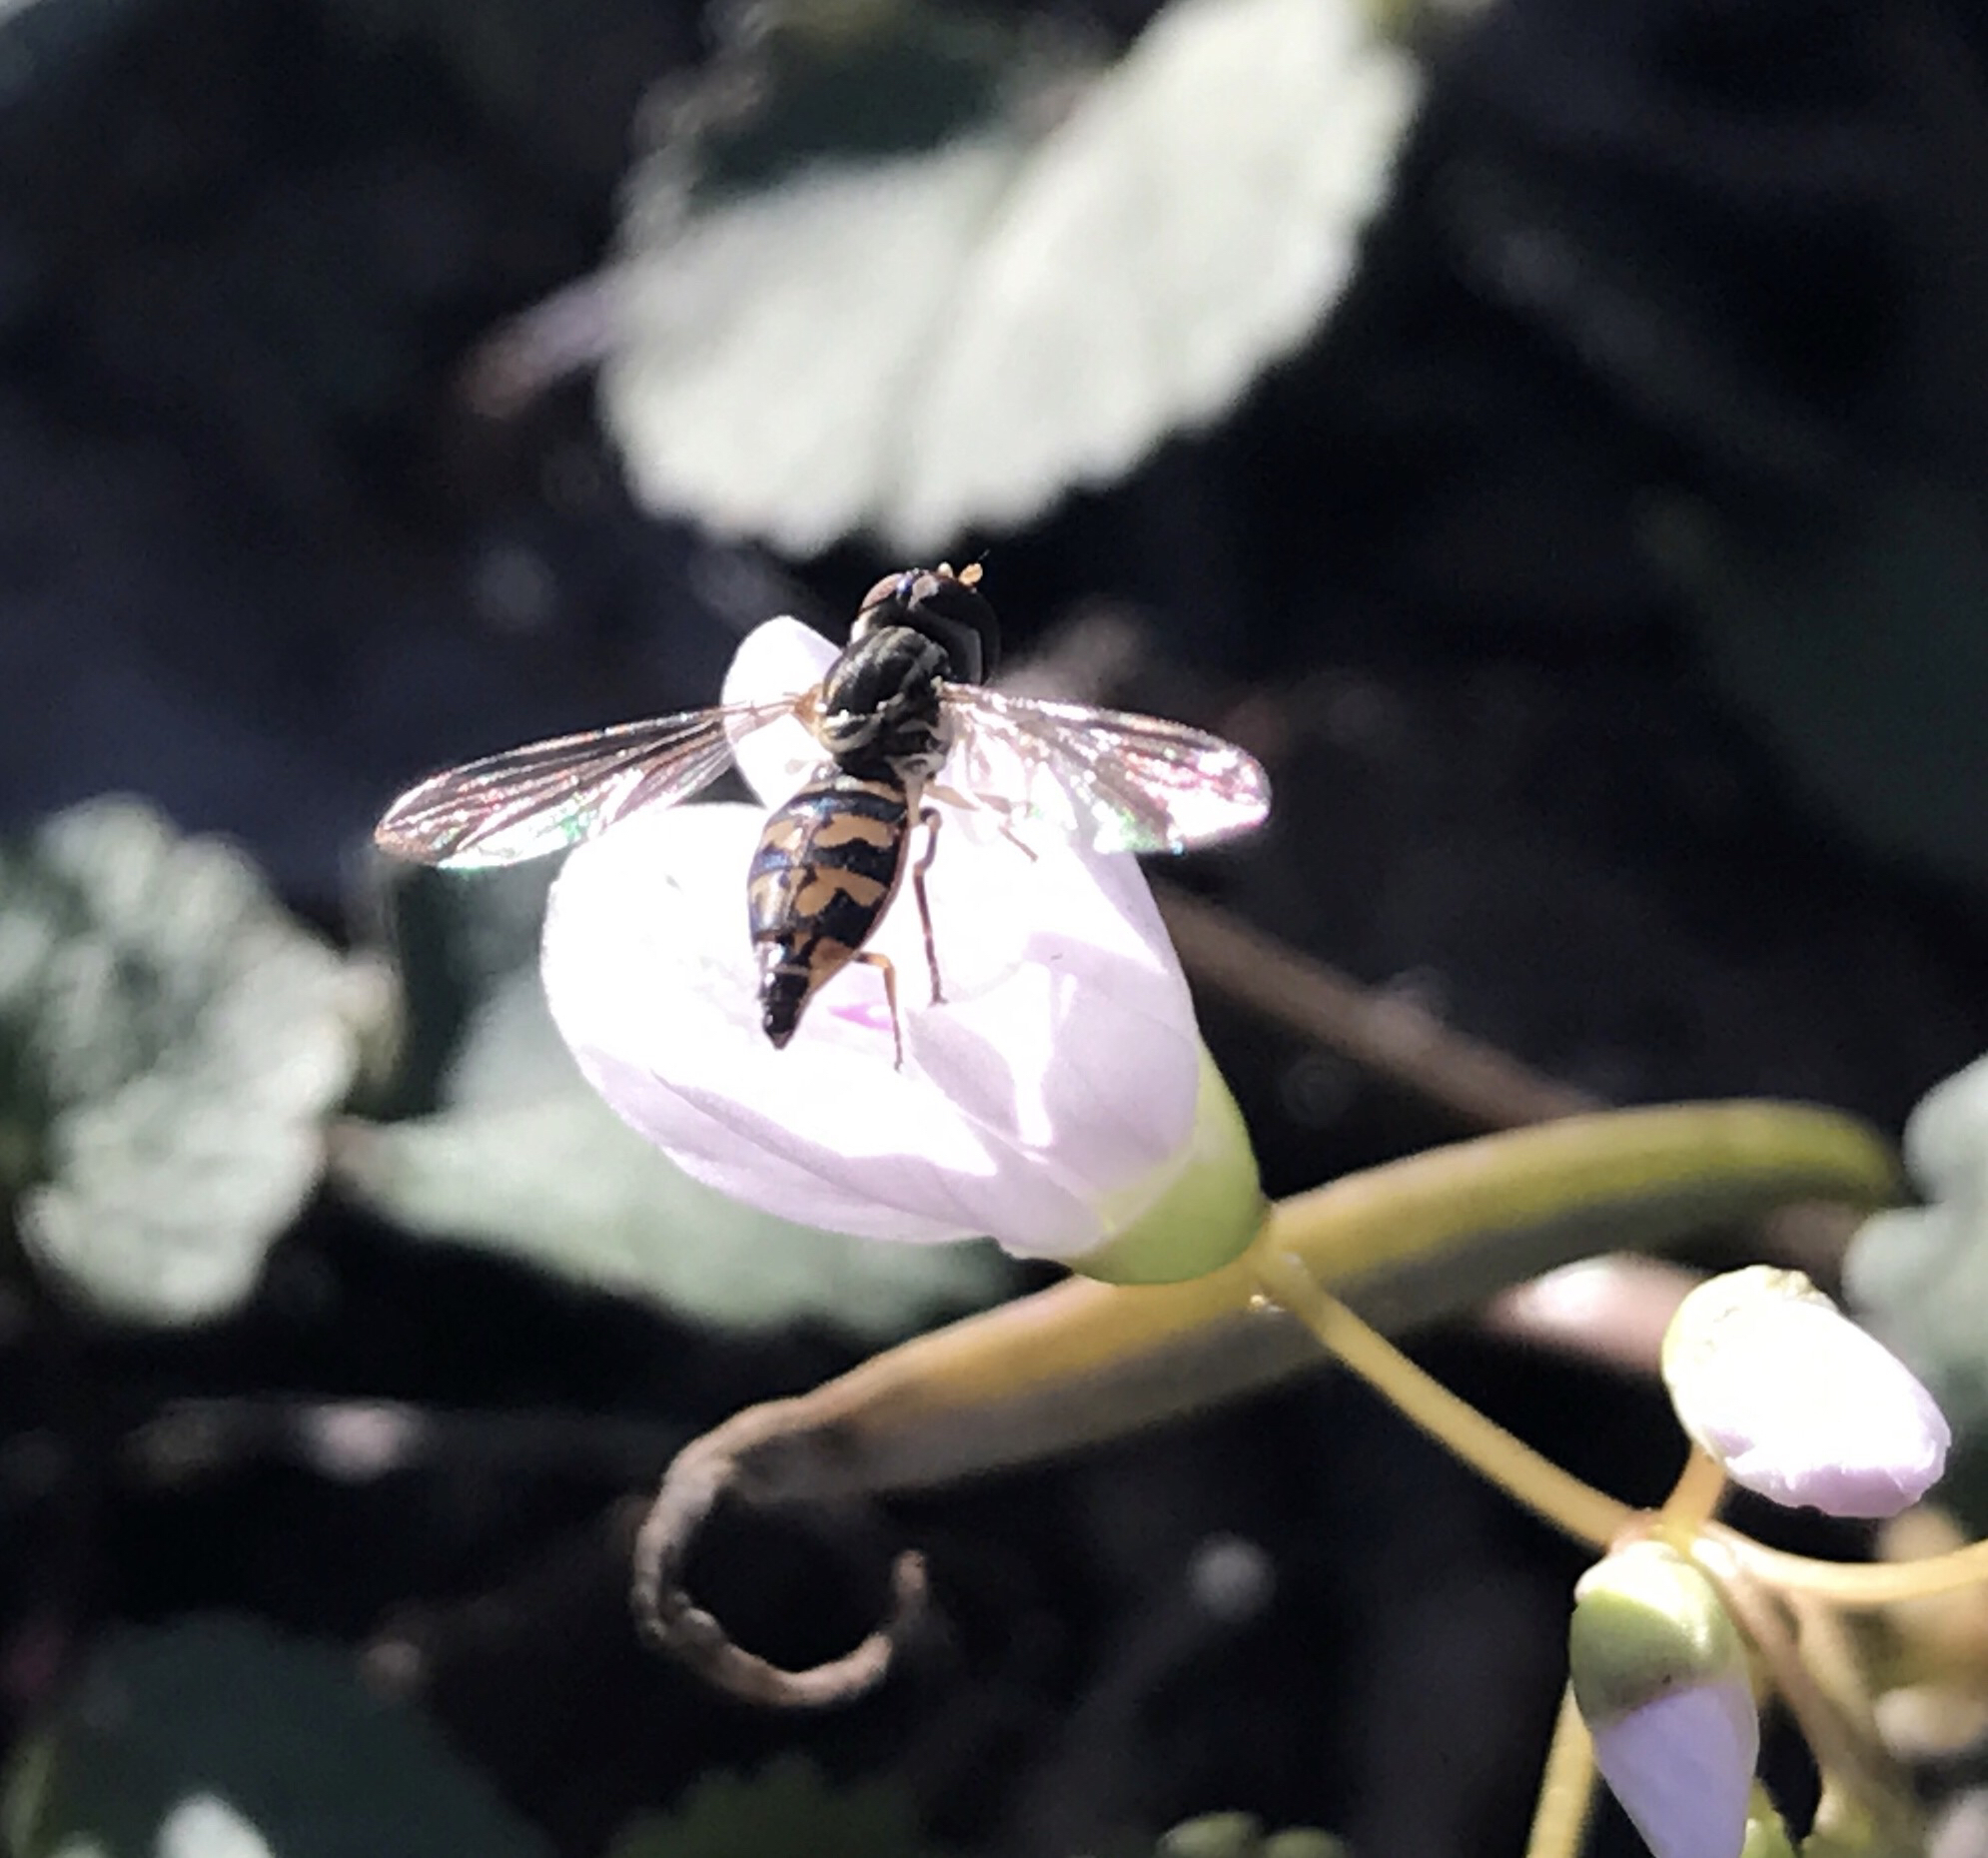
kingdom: Animalia
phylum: Arthropoda
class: Insecta
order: Diptera
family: Syrphidae
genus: Toxomerus
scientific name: Toxomerus geminatus
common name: Eastern calligrapher
